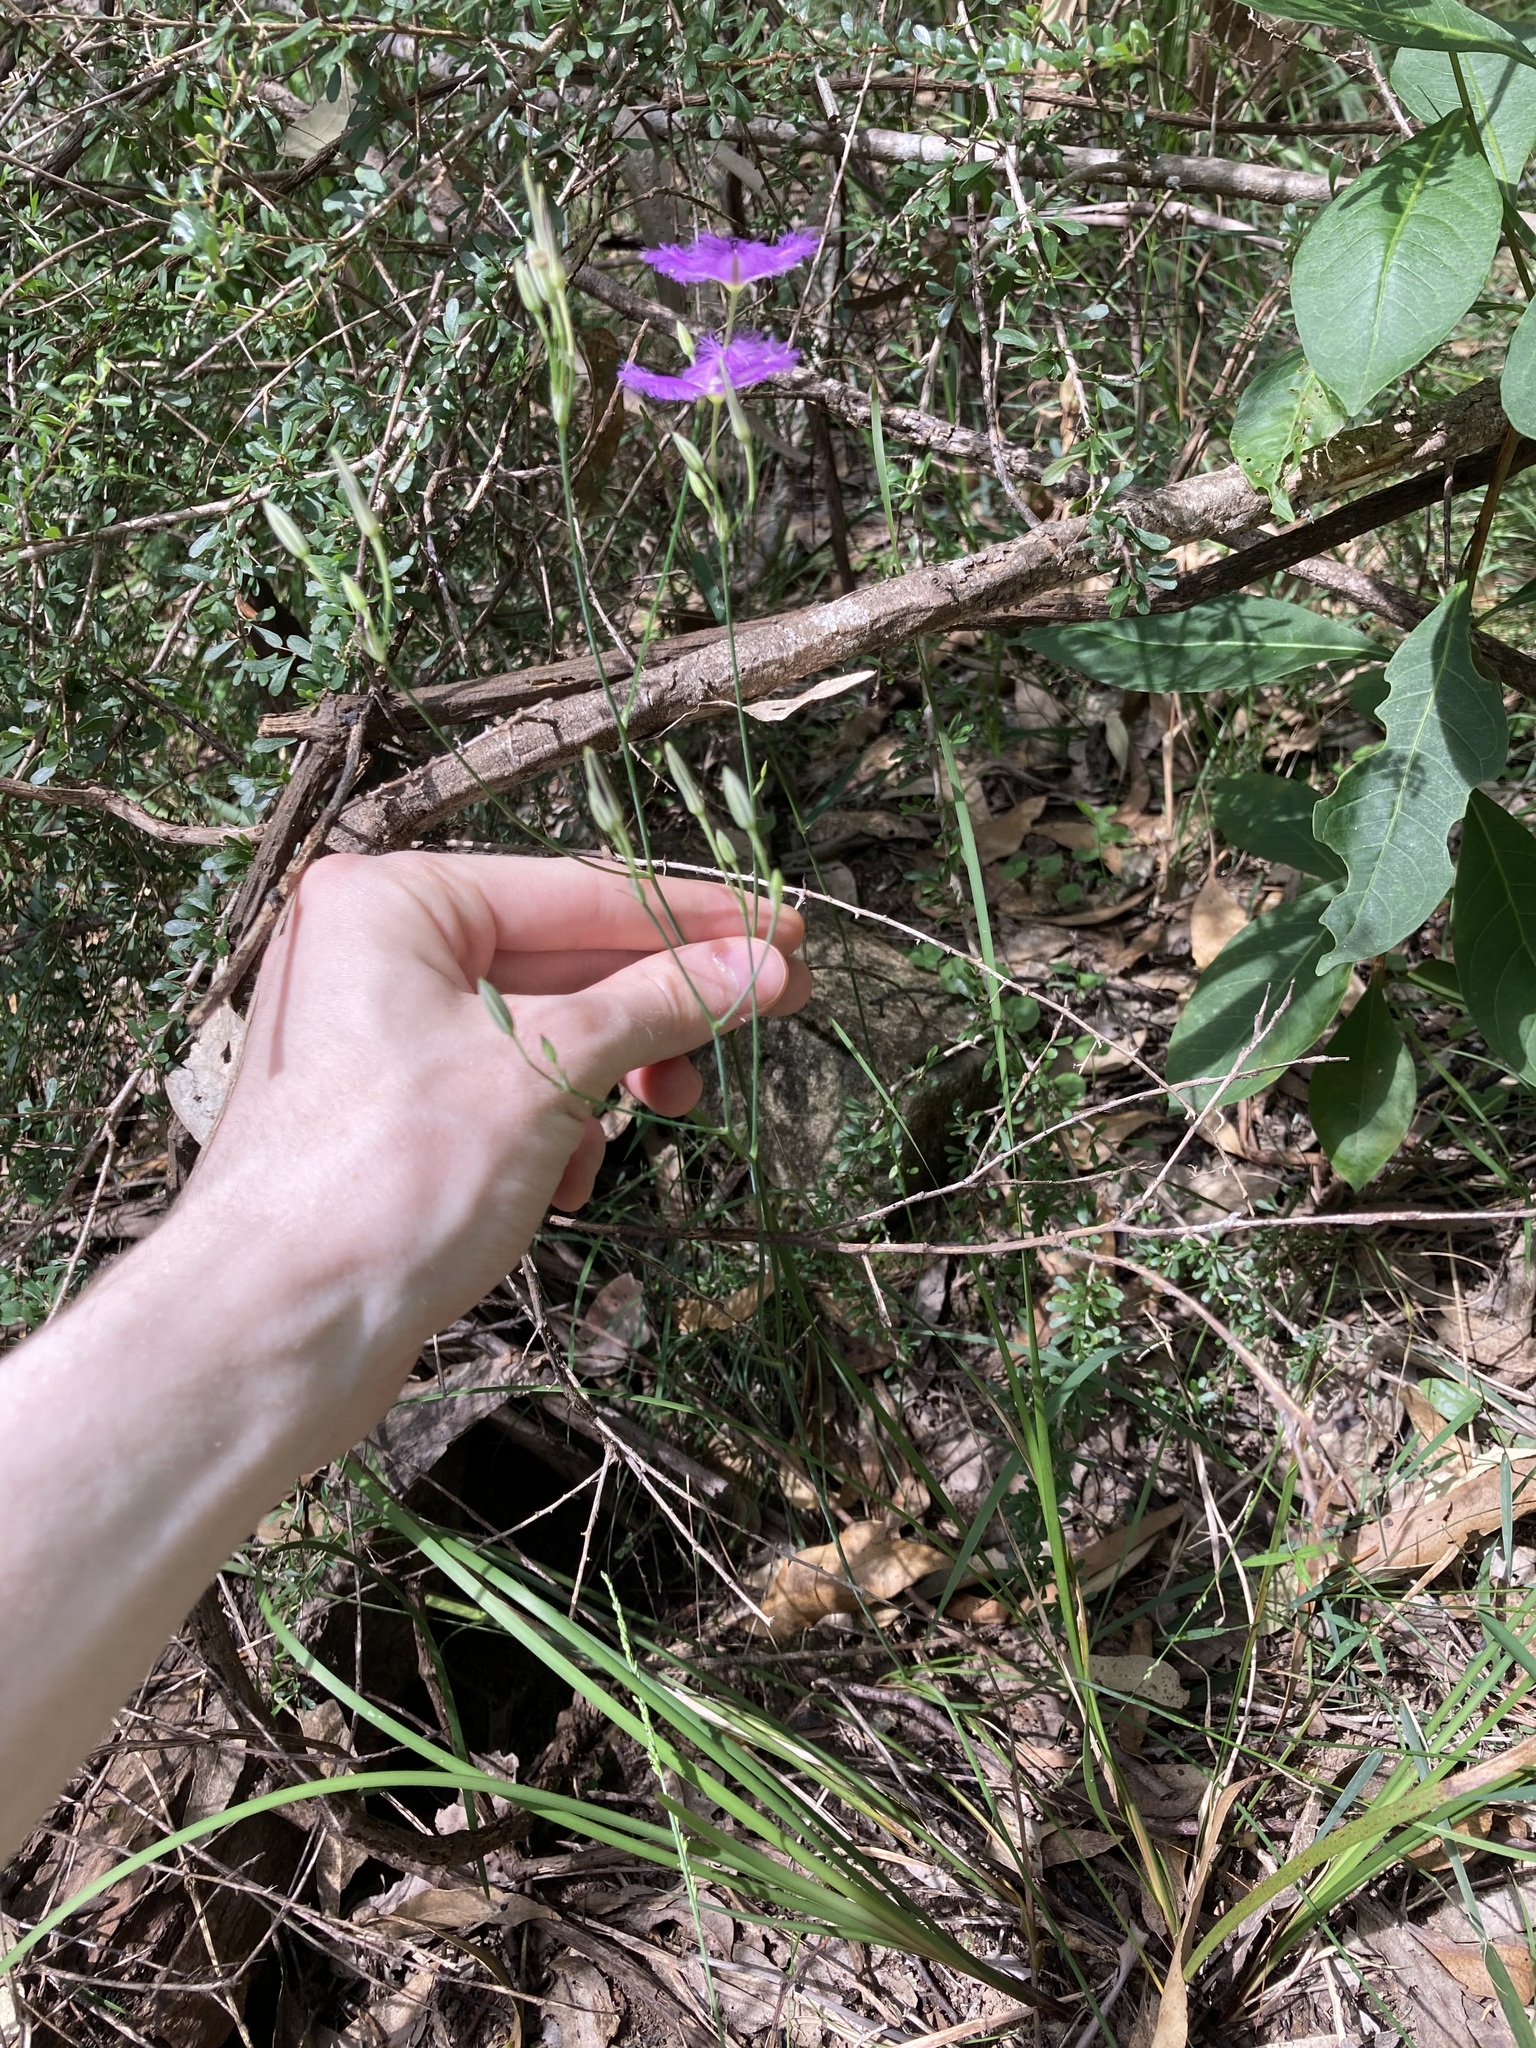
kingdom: Plantae
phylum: Tracheophyta
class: Liliopsida
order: Asparagales
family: Asparagaceae
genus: Thysanotus
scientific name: Thysanotus tuberosus
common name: Common fringed-lily
